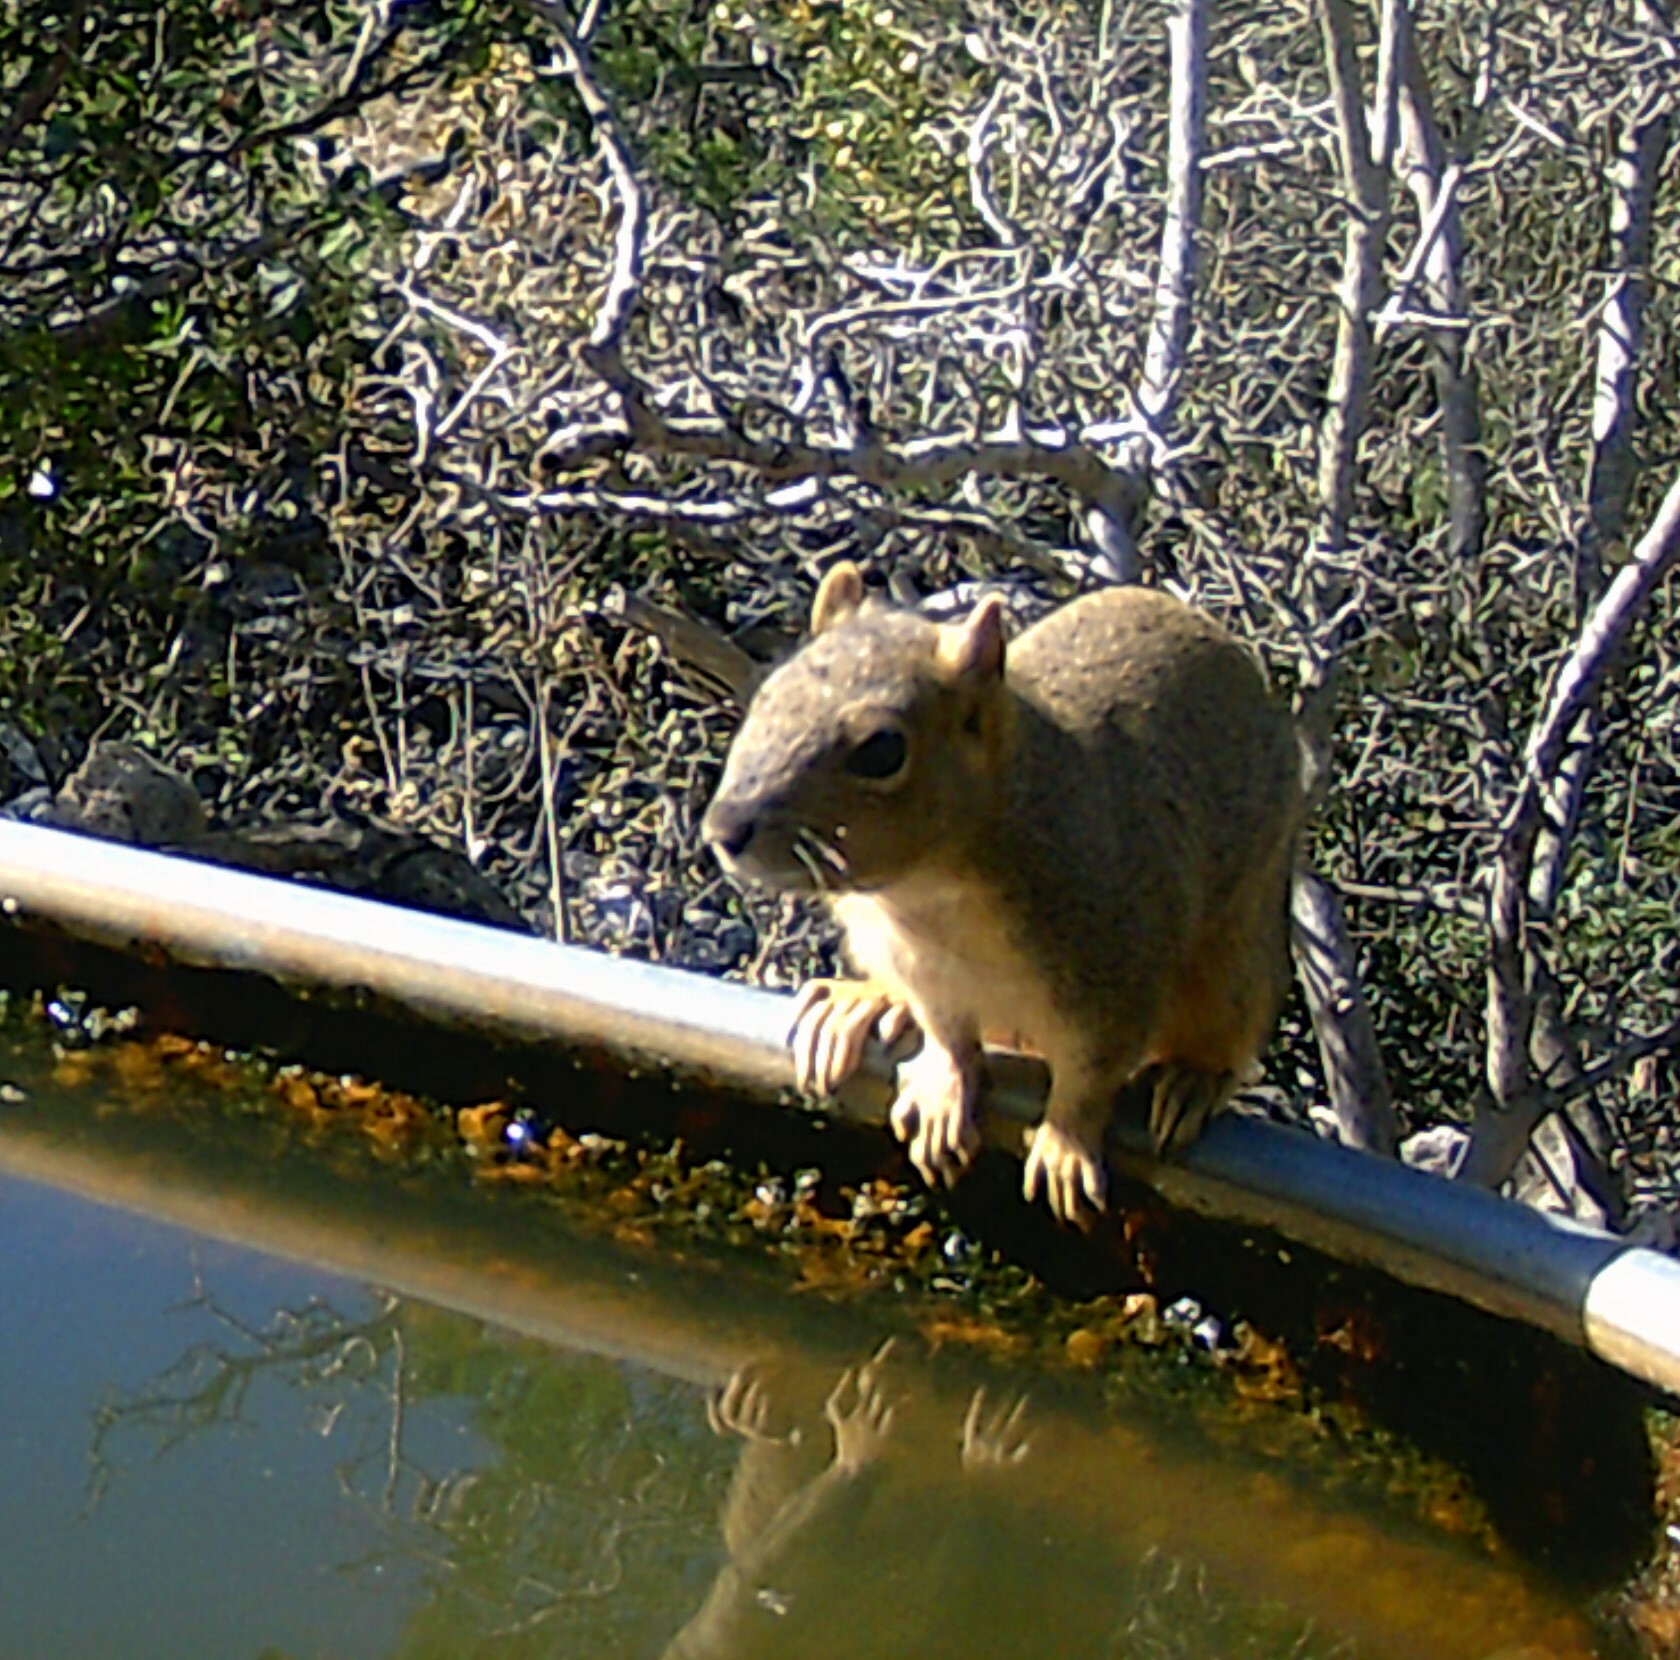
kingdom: Animalia
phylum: Chordata
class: Mammalia
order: Rodentia
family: Sciuridae
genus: Sciurus
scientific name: Sciurus niger
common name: Fox squirrel
